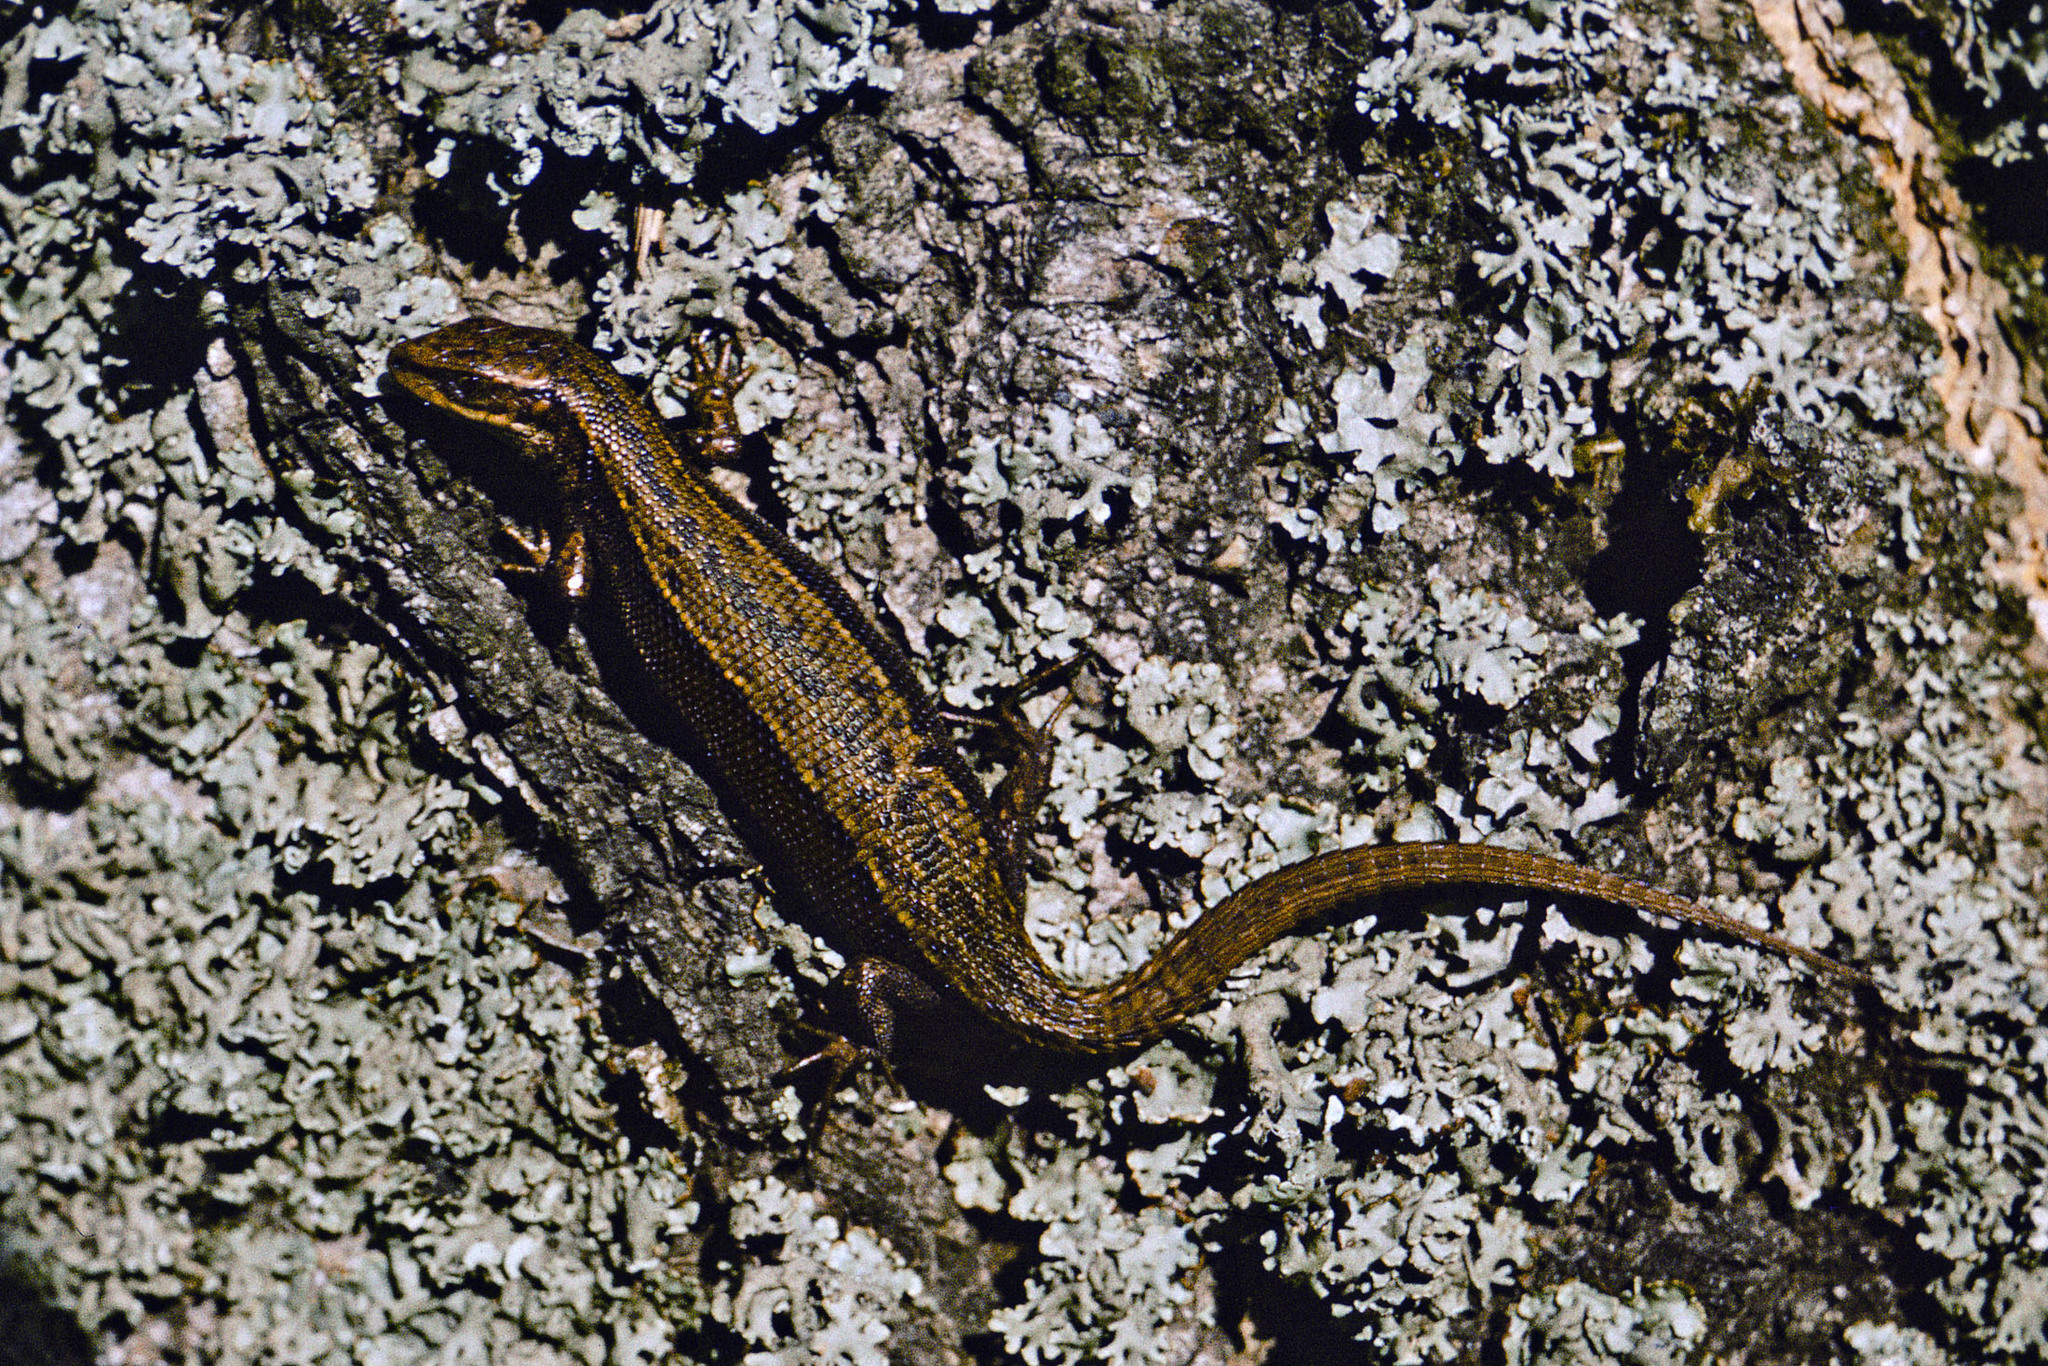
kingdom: Animalia
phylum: Chordata
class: Squamata
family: Lacertidae
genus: Zootoca
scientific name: Zootoca vivipara
